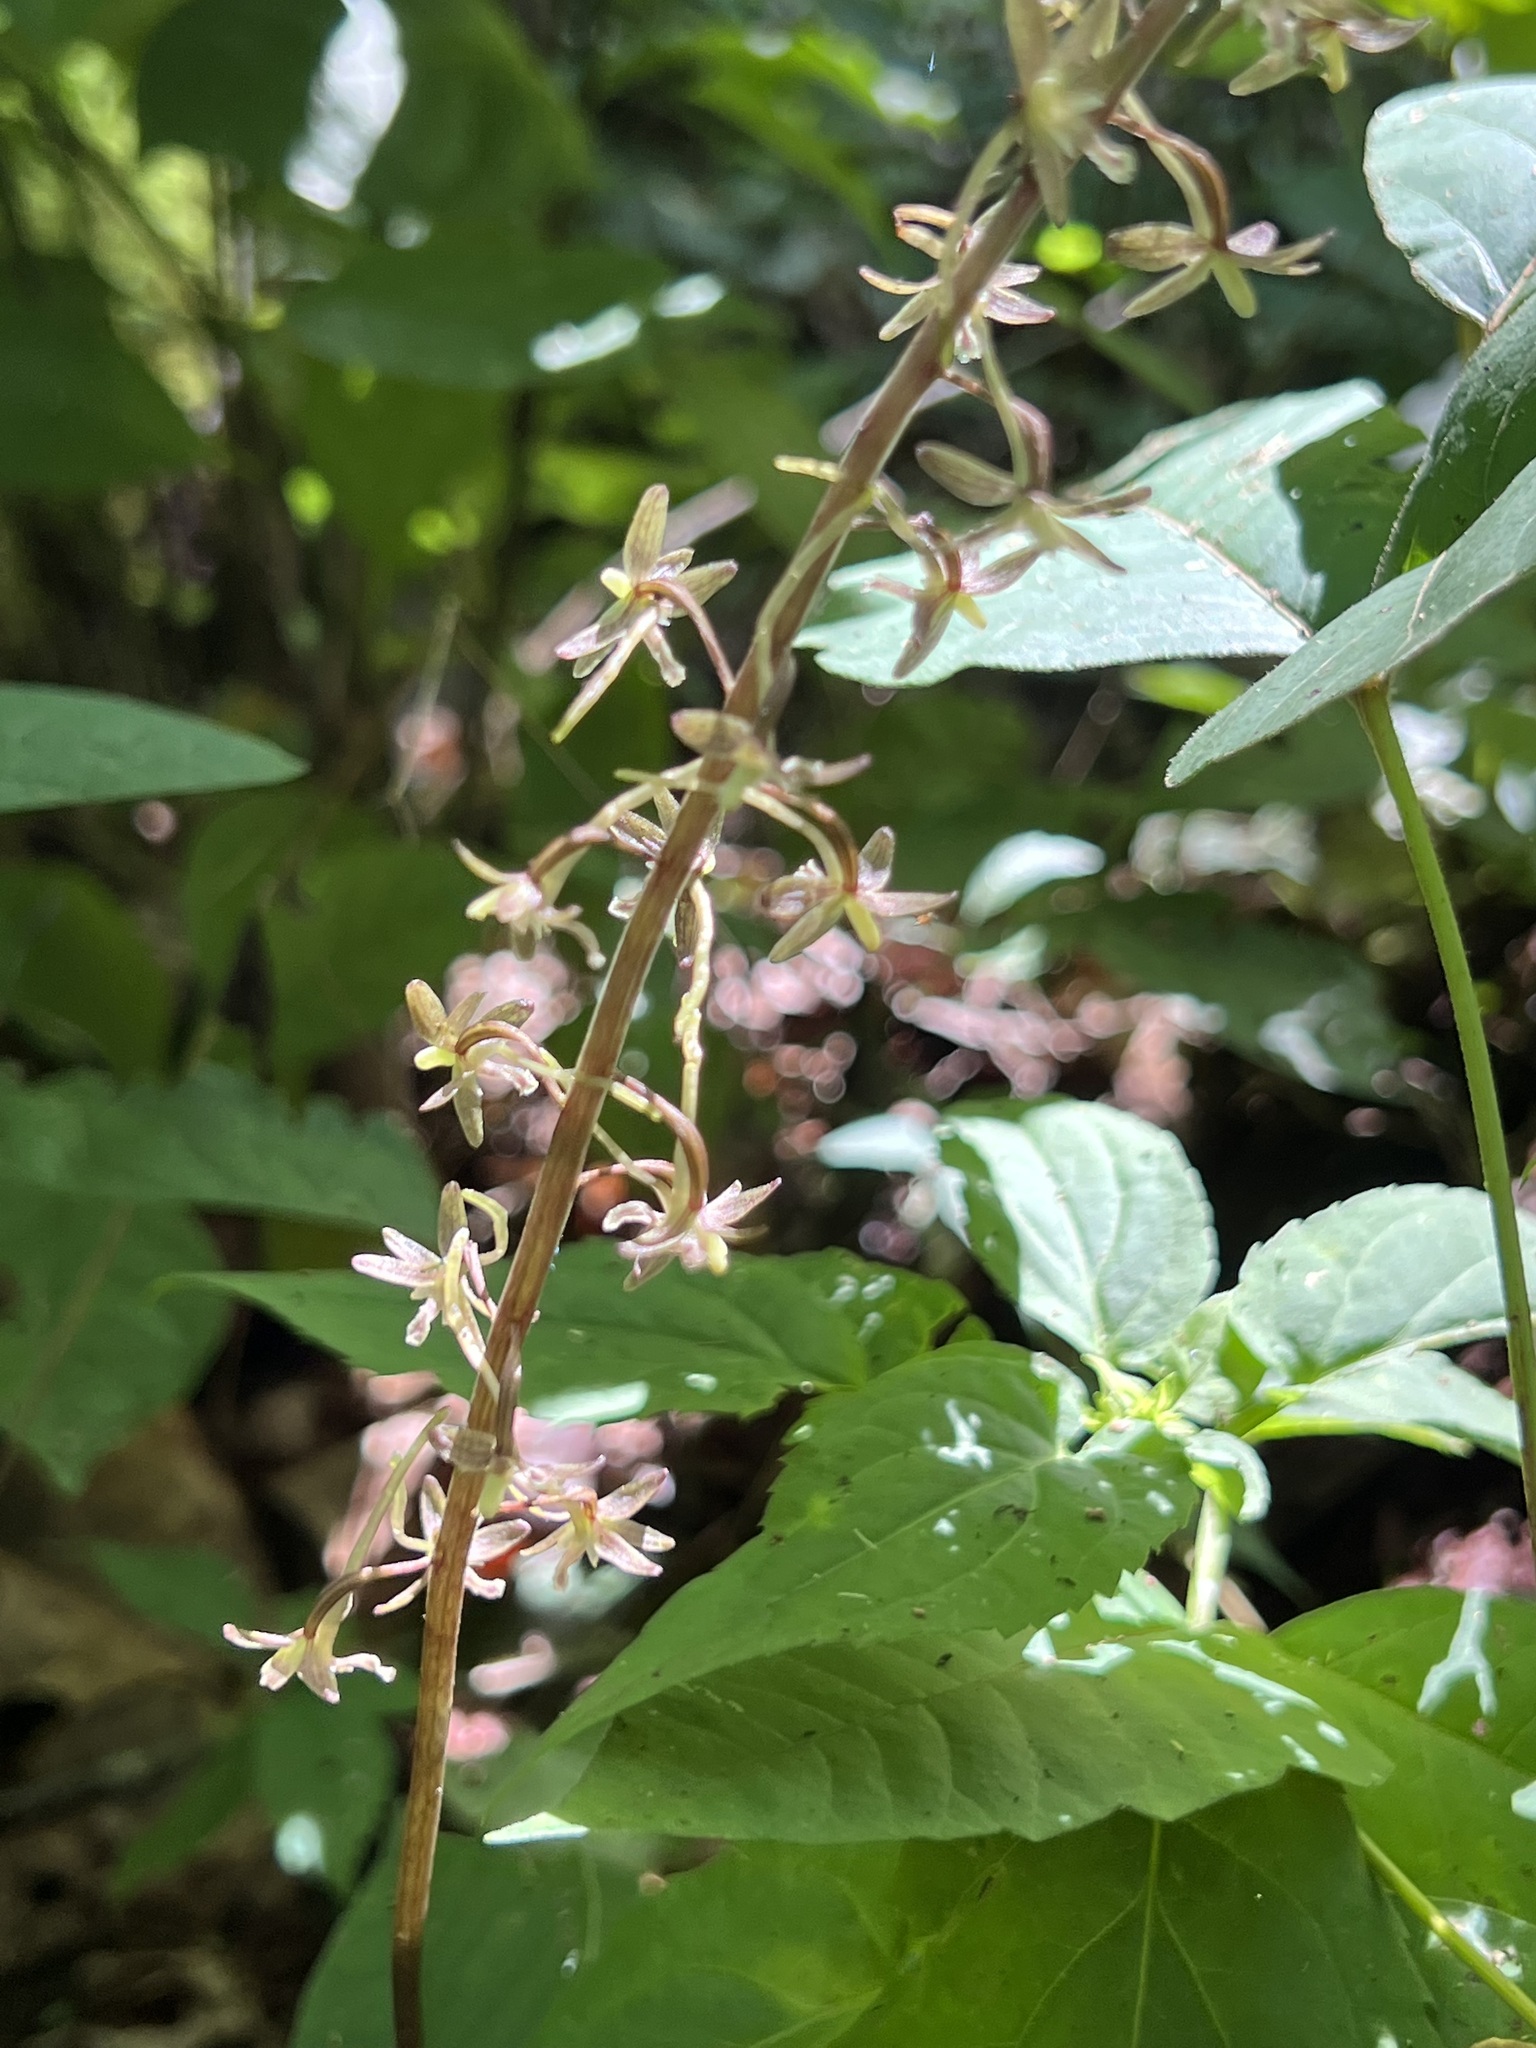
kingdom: Plantae
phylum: Tracheophyta
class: Liliopsida
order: Asparagales
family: Orchidaceae
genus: Tipularia
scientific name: Tipularia discolor
